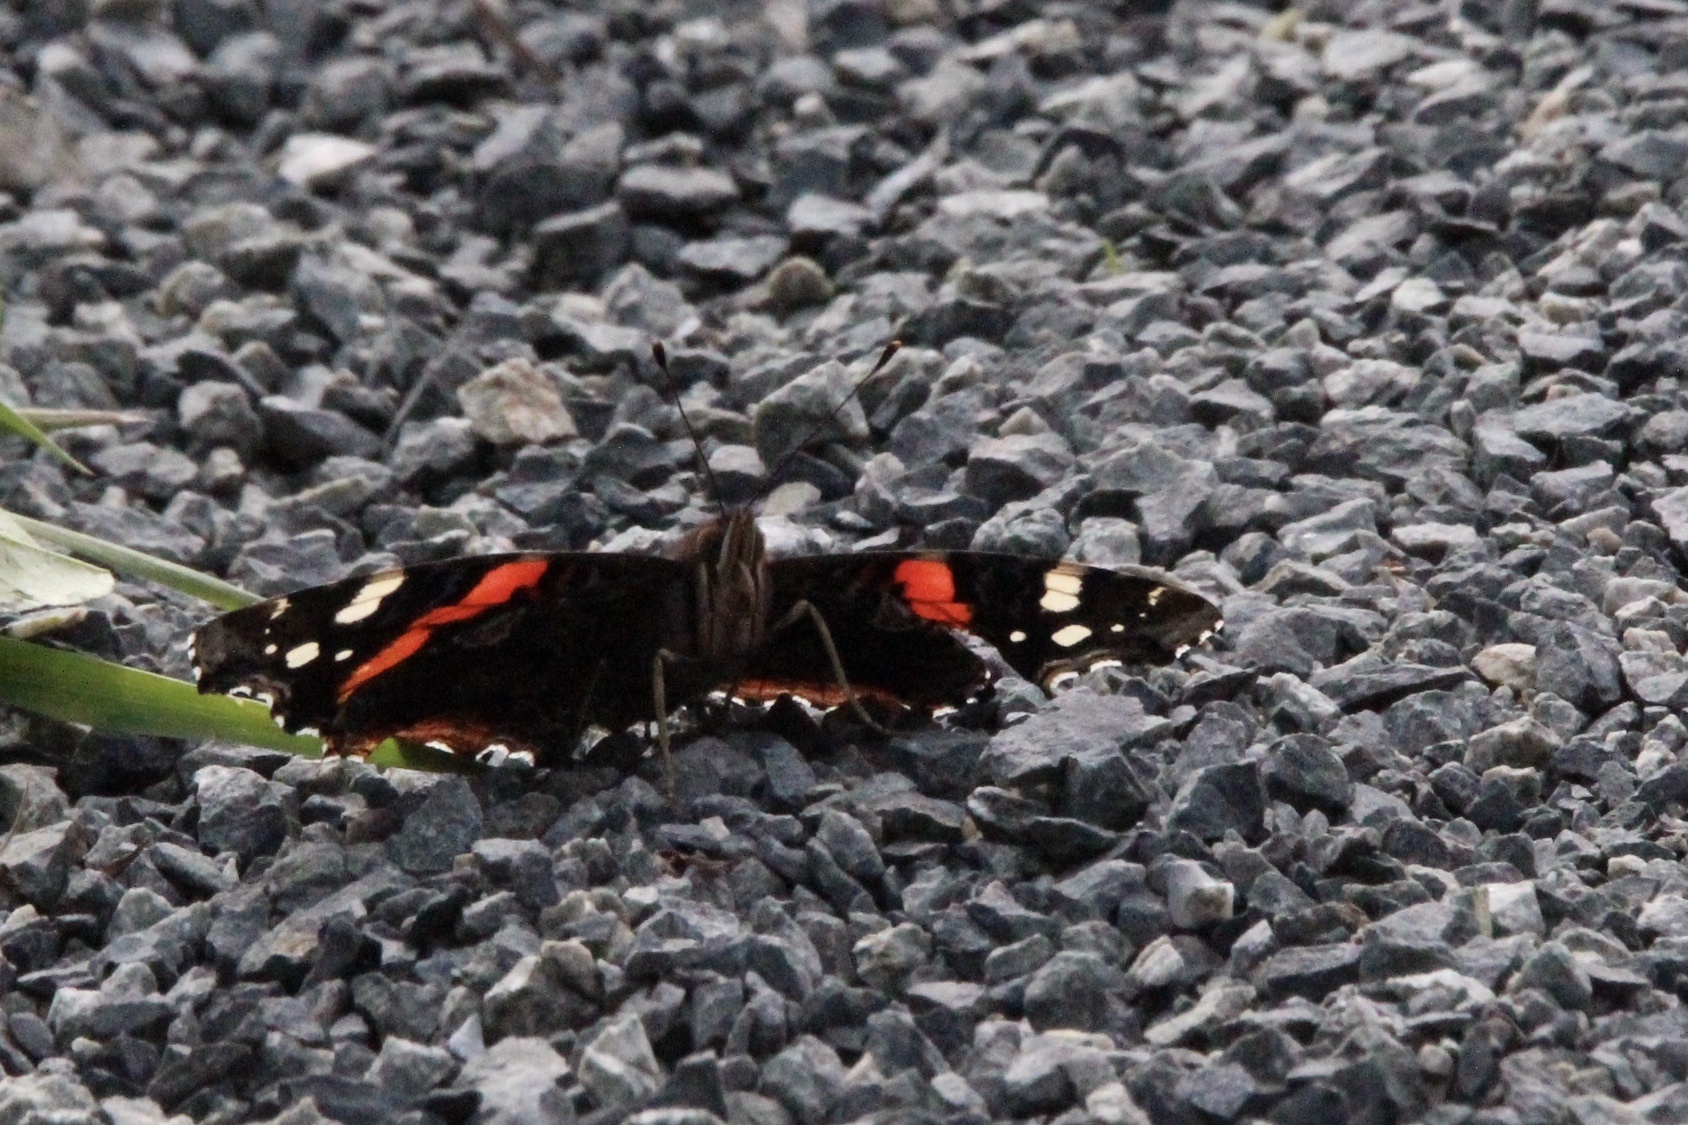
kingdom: Animalia
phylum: Arthropoda
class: Insecta
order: Lepidoptera
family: Nymphalidae
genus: Vanessa
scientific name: Vanessa atalanta
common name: Red admiral
